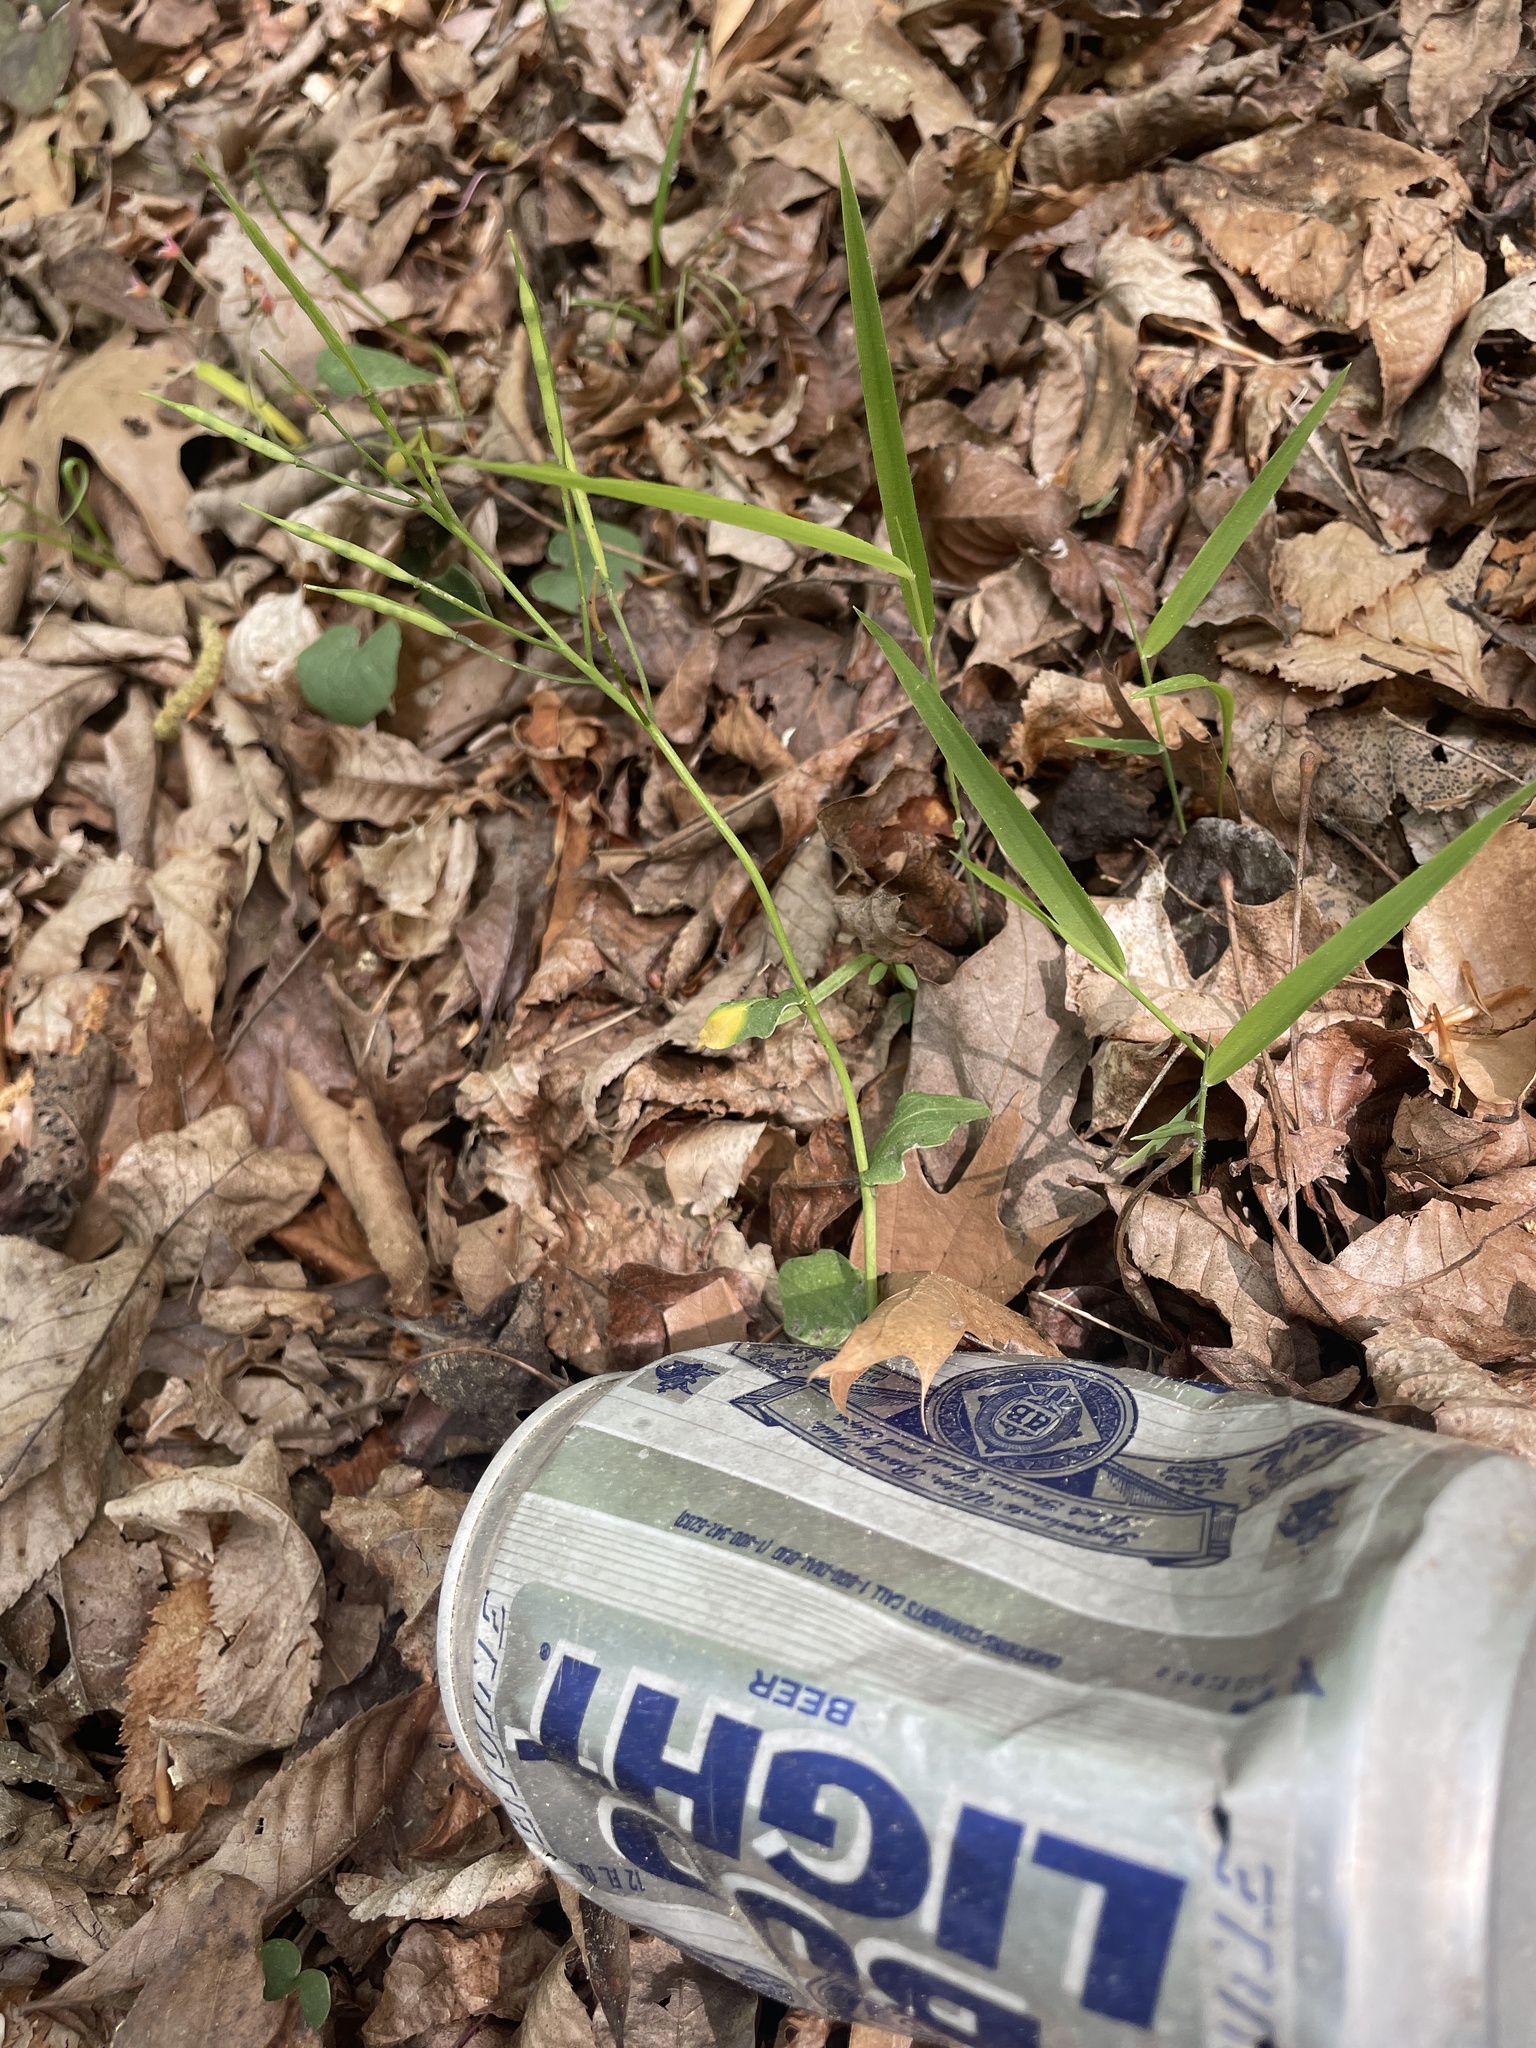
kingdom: Plantae
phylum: Tracheophyta
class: Magnoliopsida
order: Brassicales
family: Brassicaceae
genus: Cardamine
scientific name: Cardamine douglassii
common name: Purple cress
